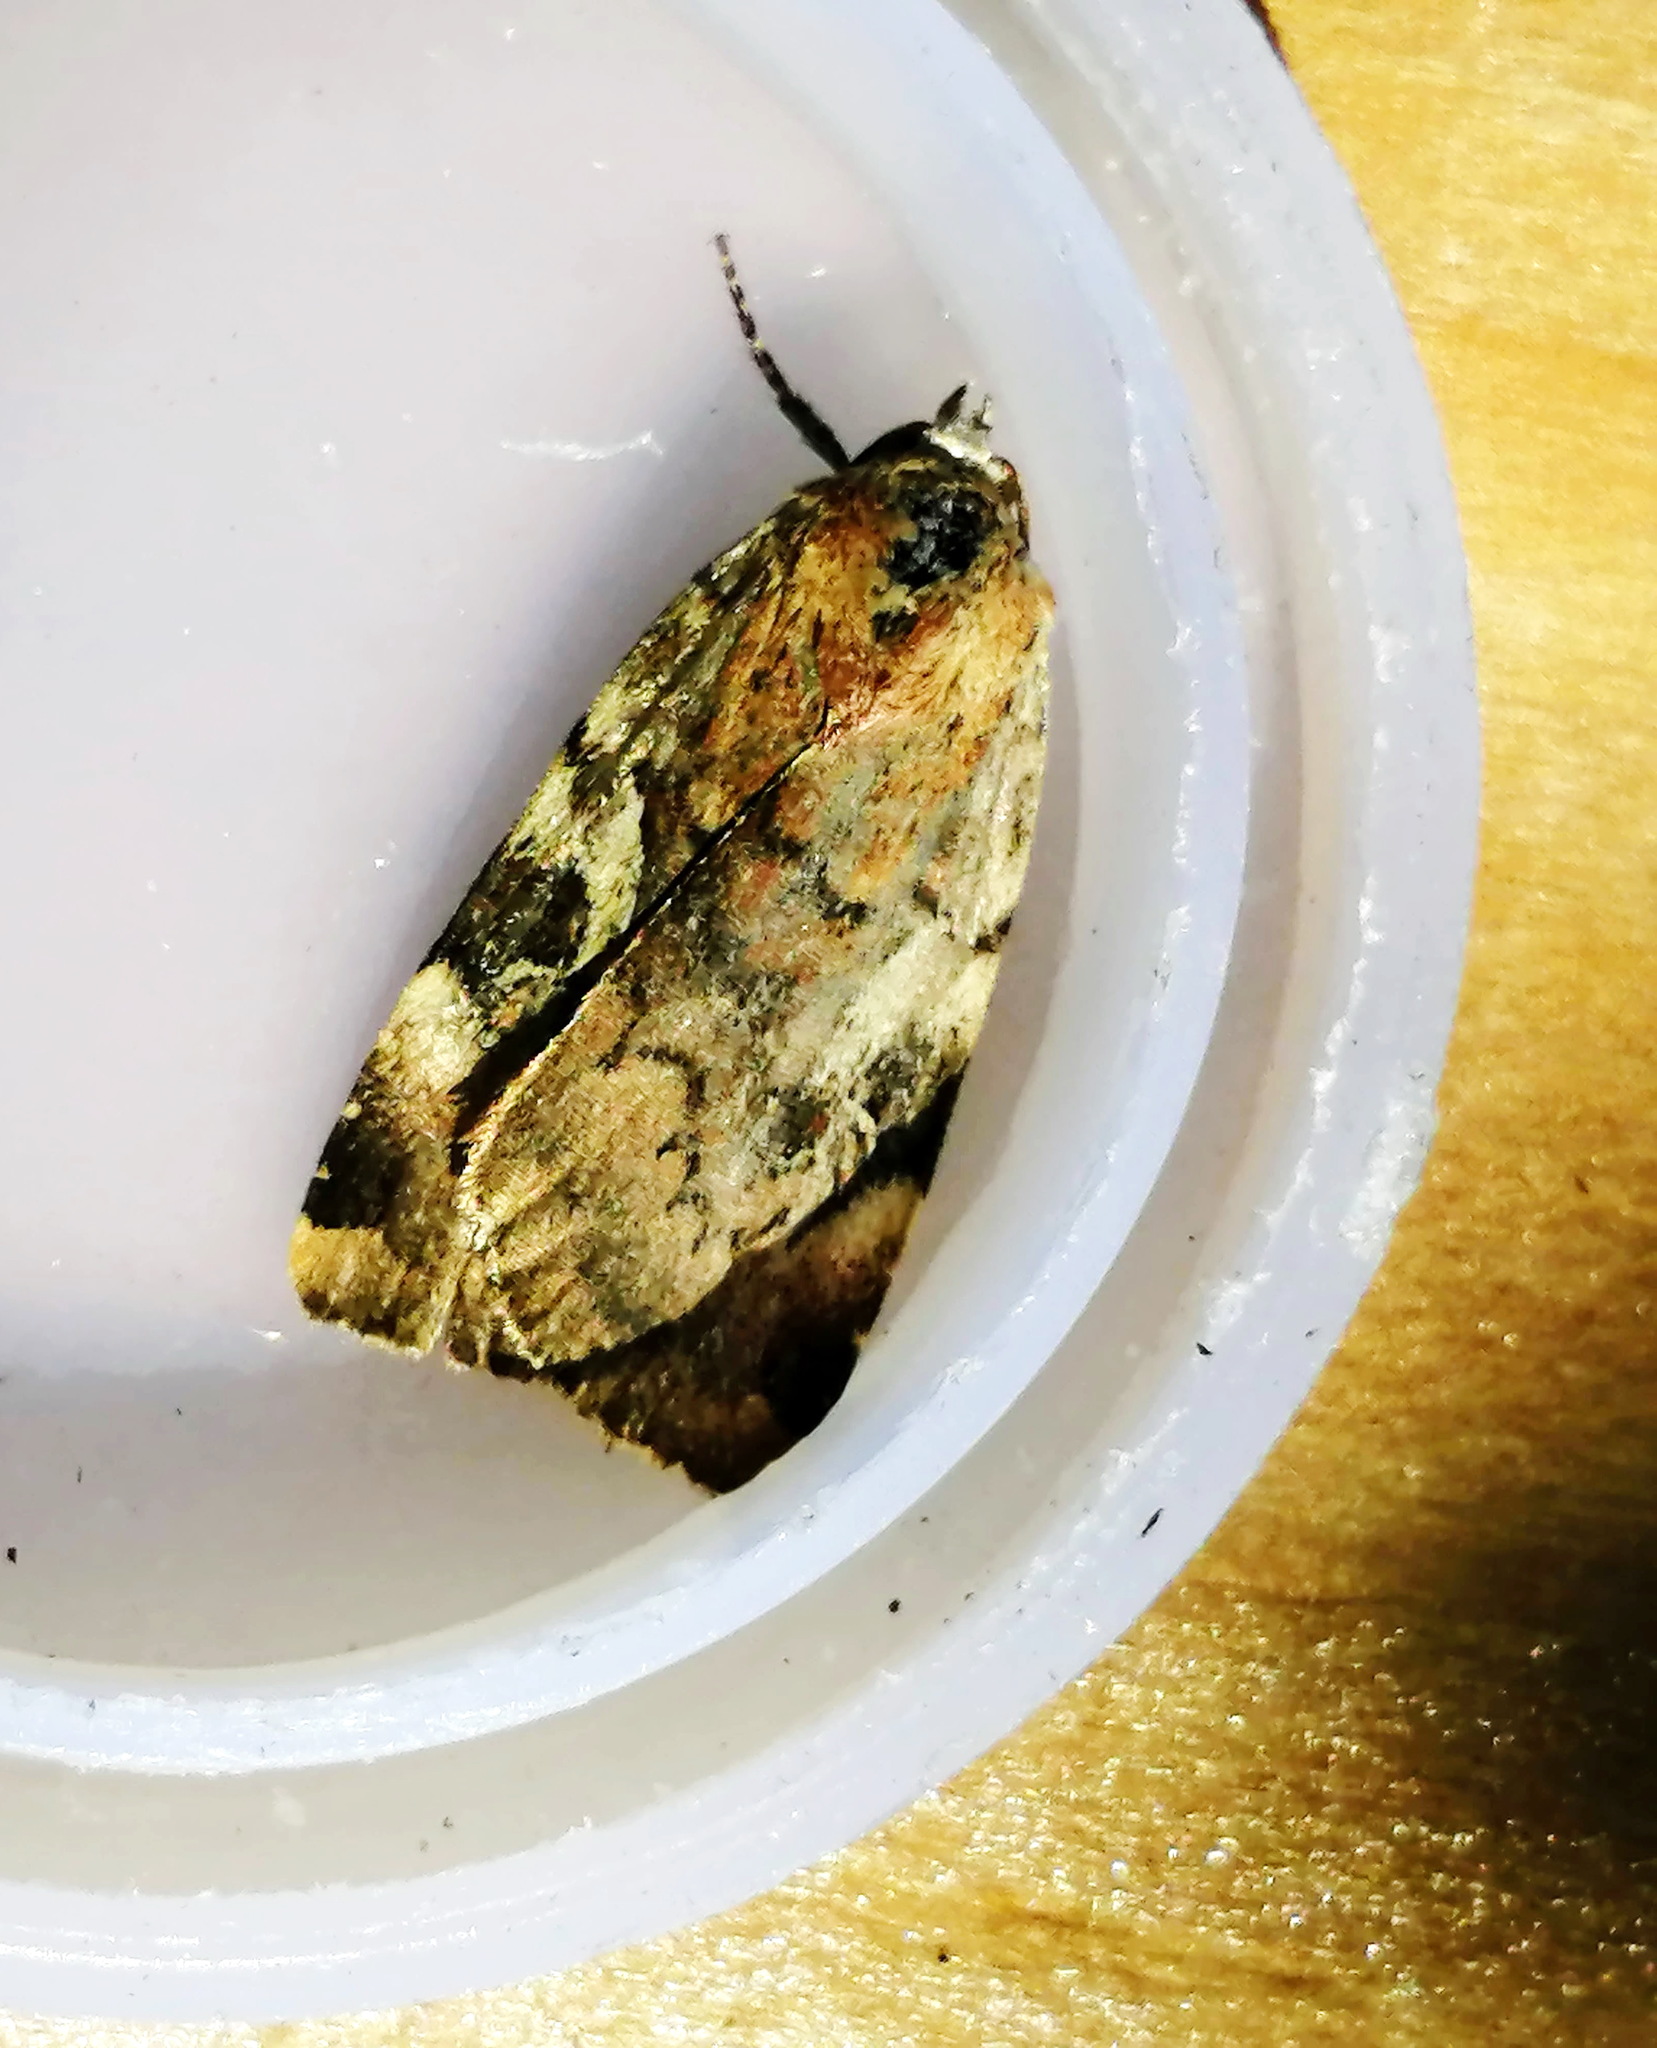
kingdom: Animalia
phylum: Arthropoda
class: Insecta
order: Lepidoptera
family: Noctuidae
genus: Cryptocala
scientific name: Cryptocala acadiensis
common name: Catocaline dart
